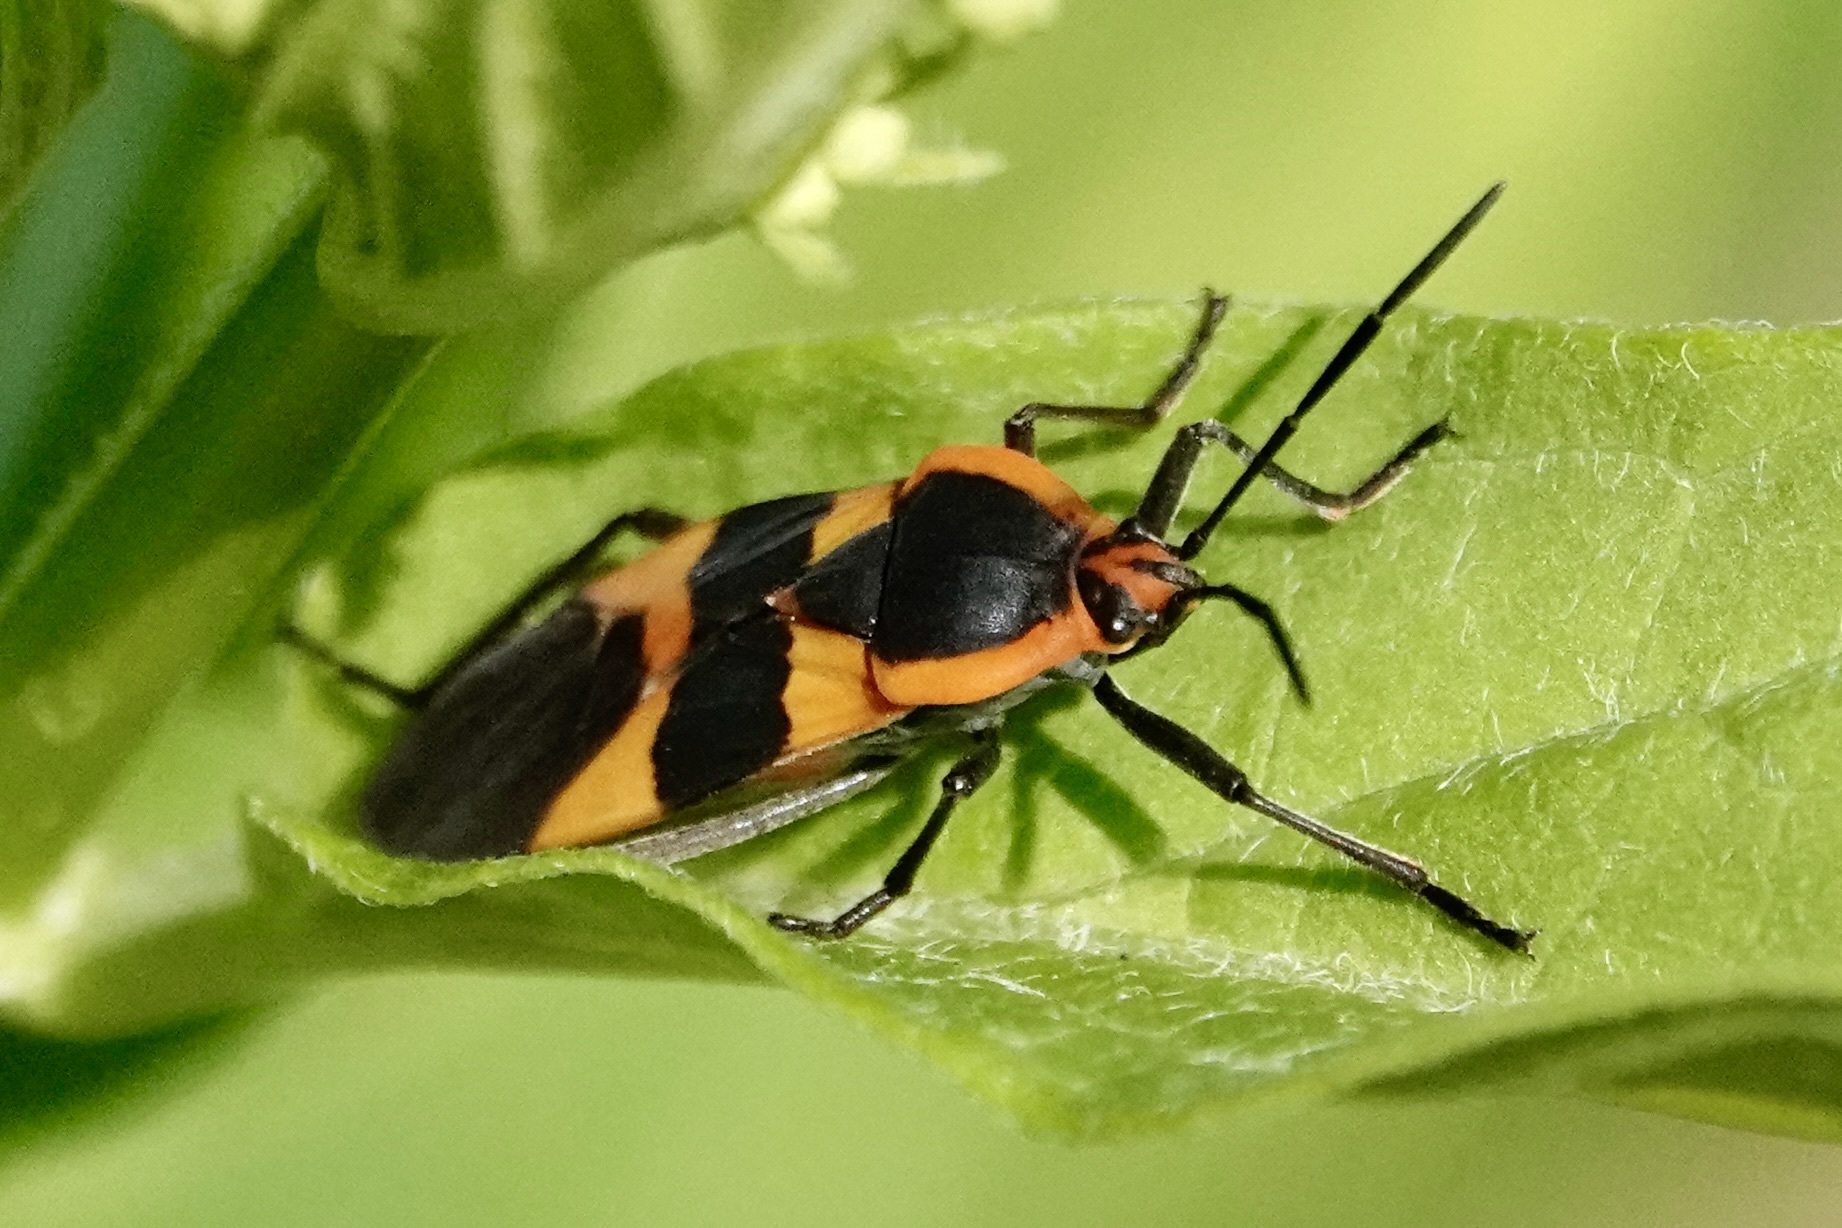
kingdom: Animalia
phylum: Arthropoda
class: Insecta
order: Hemiptera
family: Lygaeidae
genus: Oncopeltus
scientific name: Oncopeltus fasciatus
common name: Large milkweed bug
